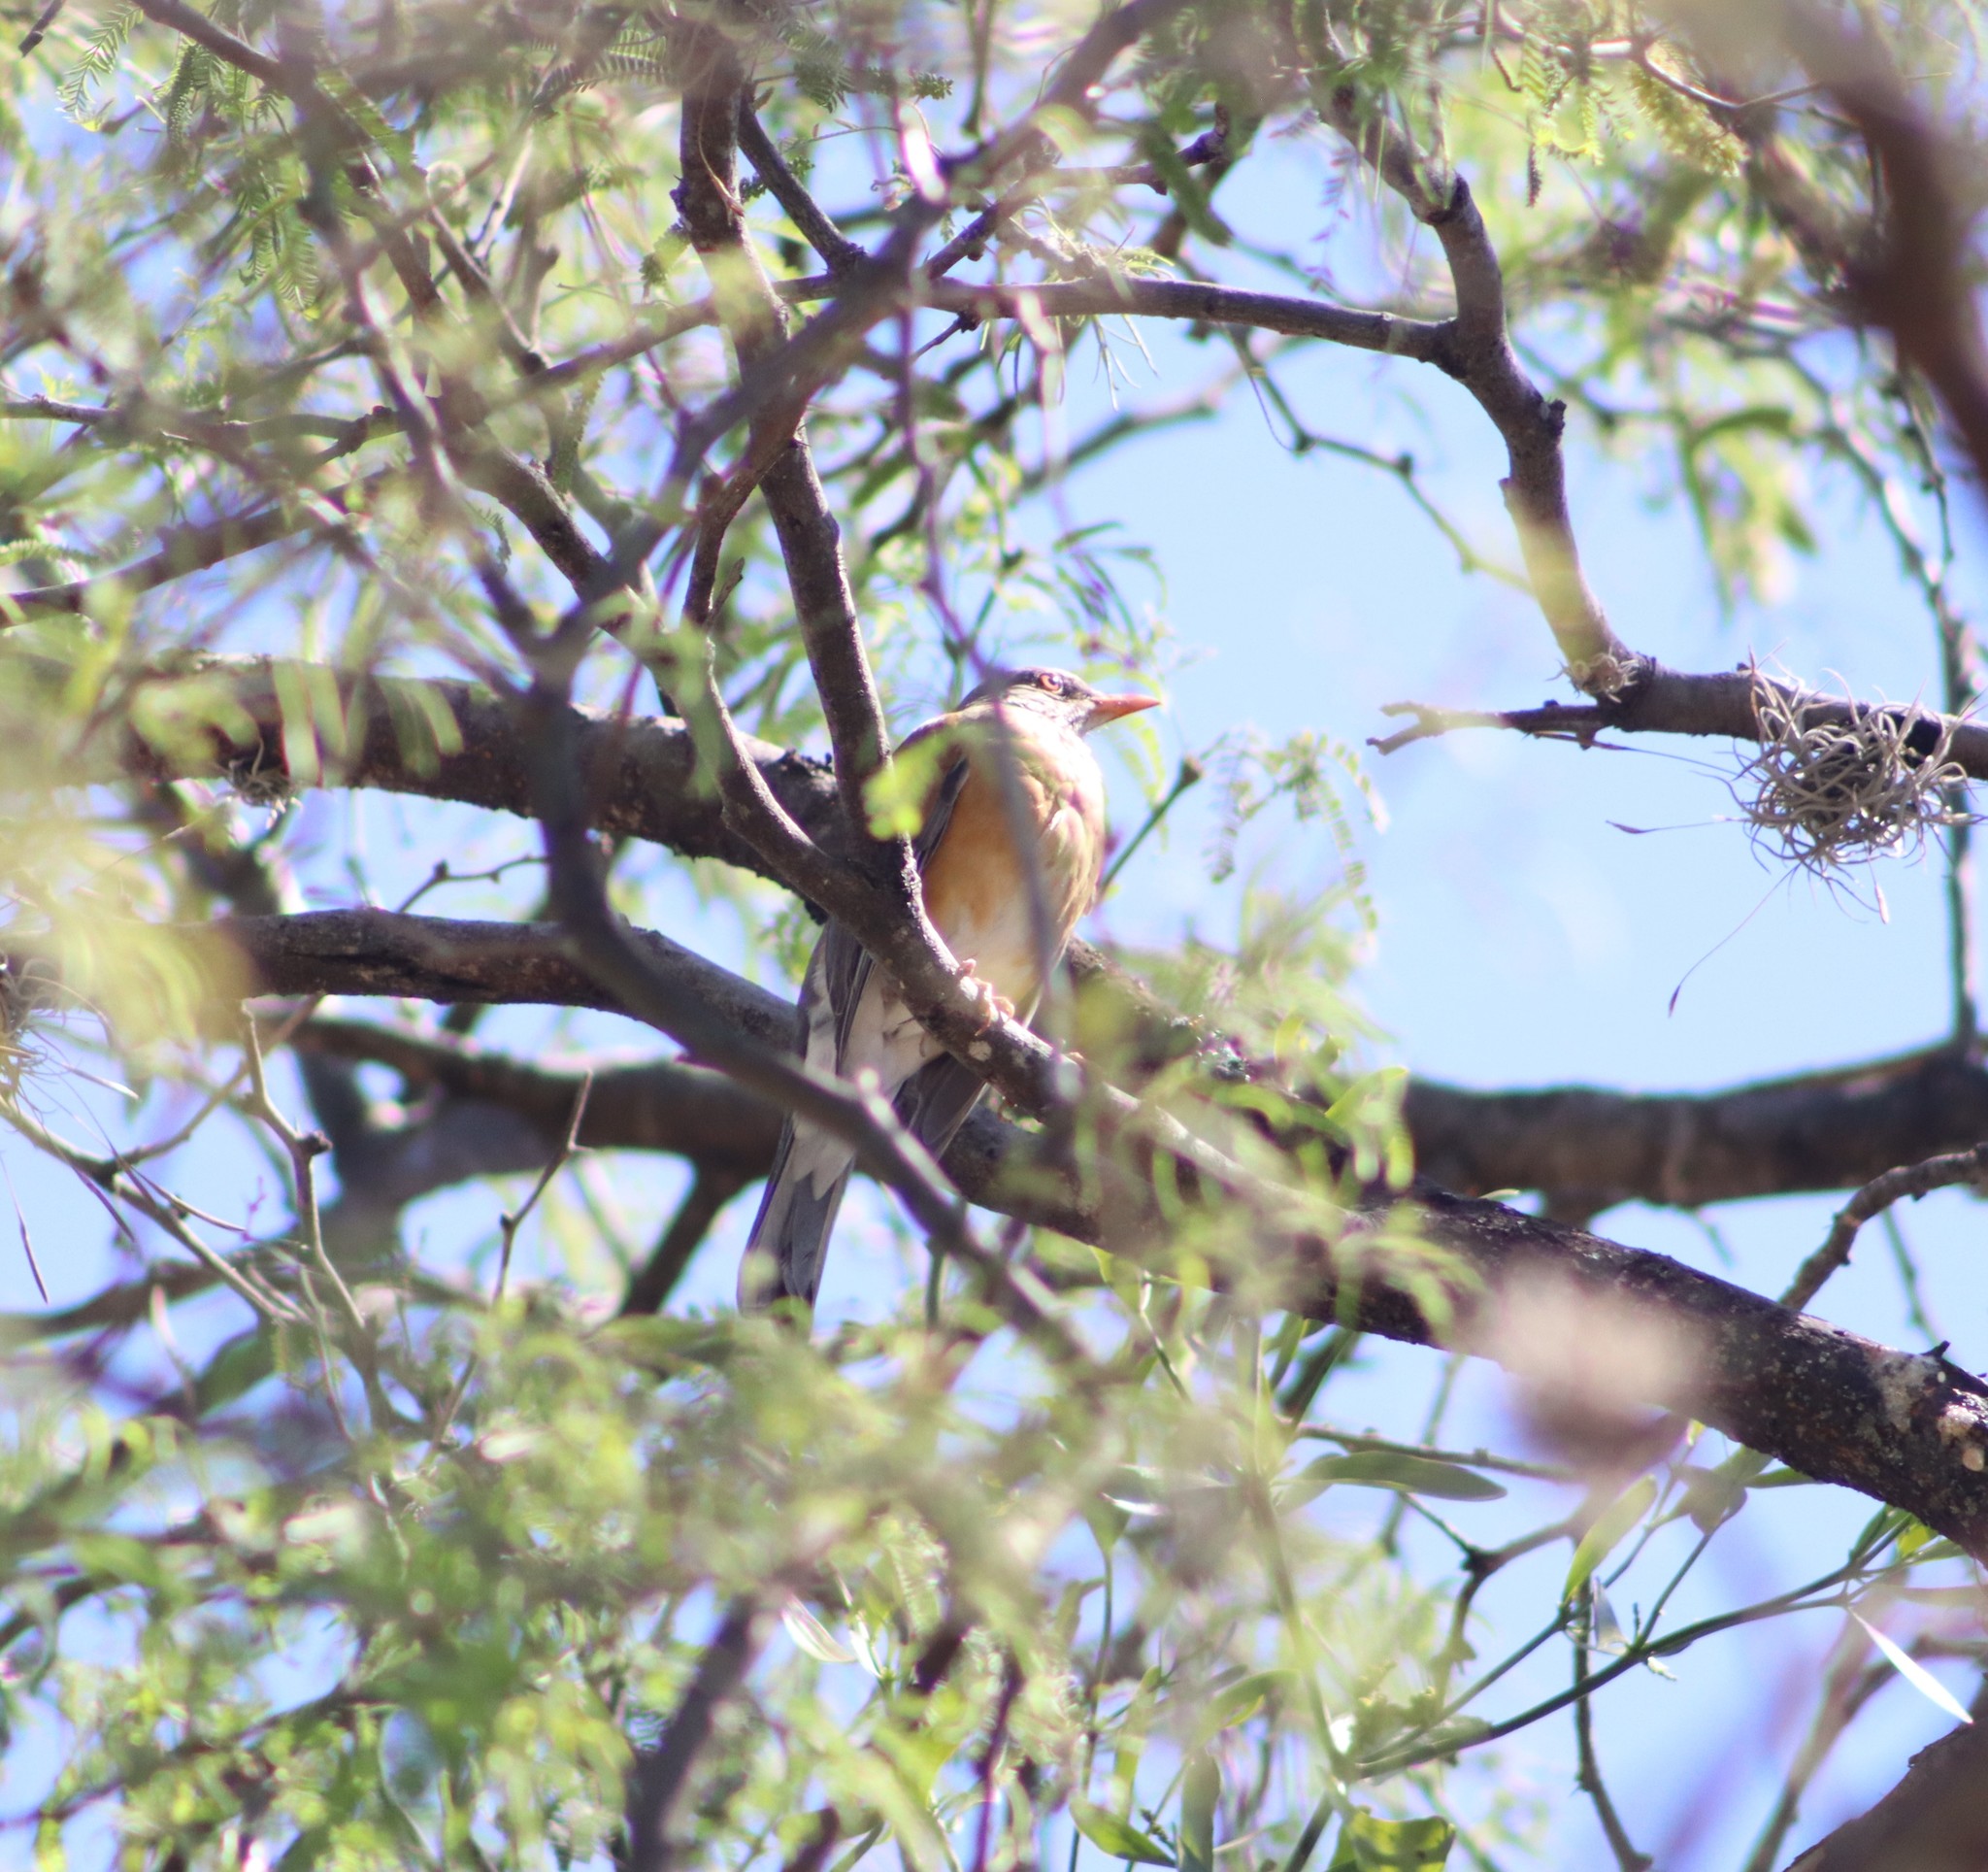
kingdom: Animalia
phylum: Chordata
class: Aves
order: Passeriformes
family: Turdidae
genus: Turdus
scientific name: Turdus rufopalliatus
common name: Rufous-backed robin
